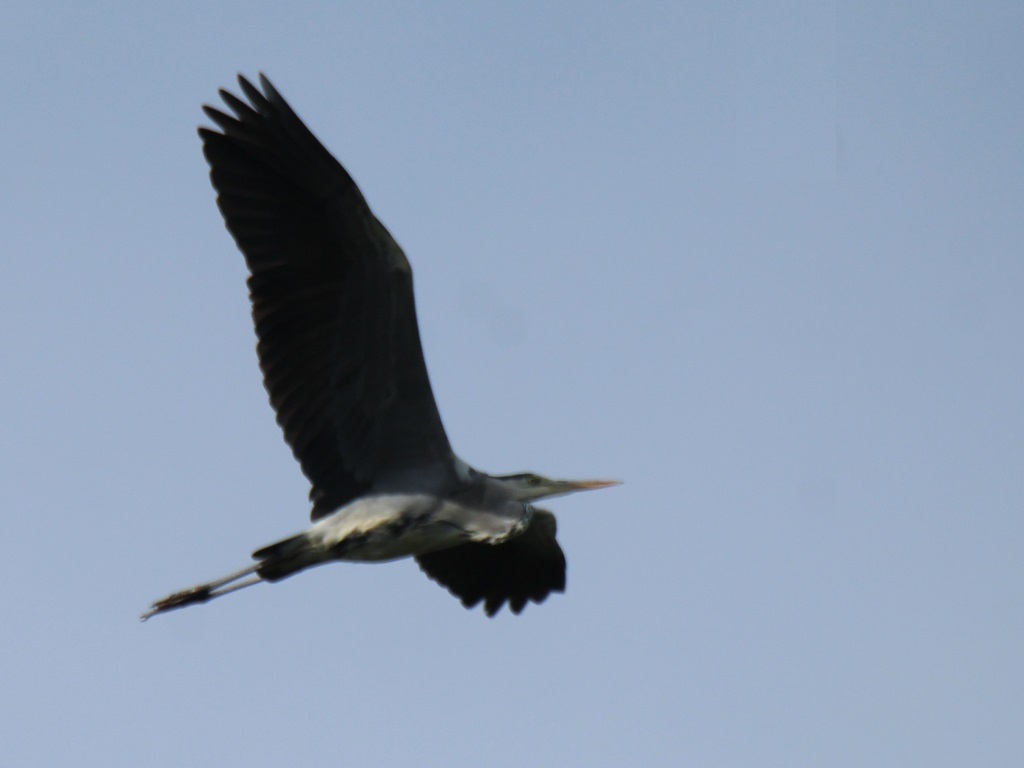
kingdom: Animalia
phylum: Chordata
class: Aves
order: Pelecaniformes
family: Ardeidae
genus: Ardea
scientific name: Ardea cinerea
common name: Grey heron
